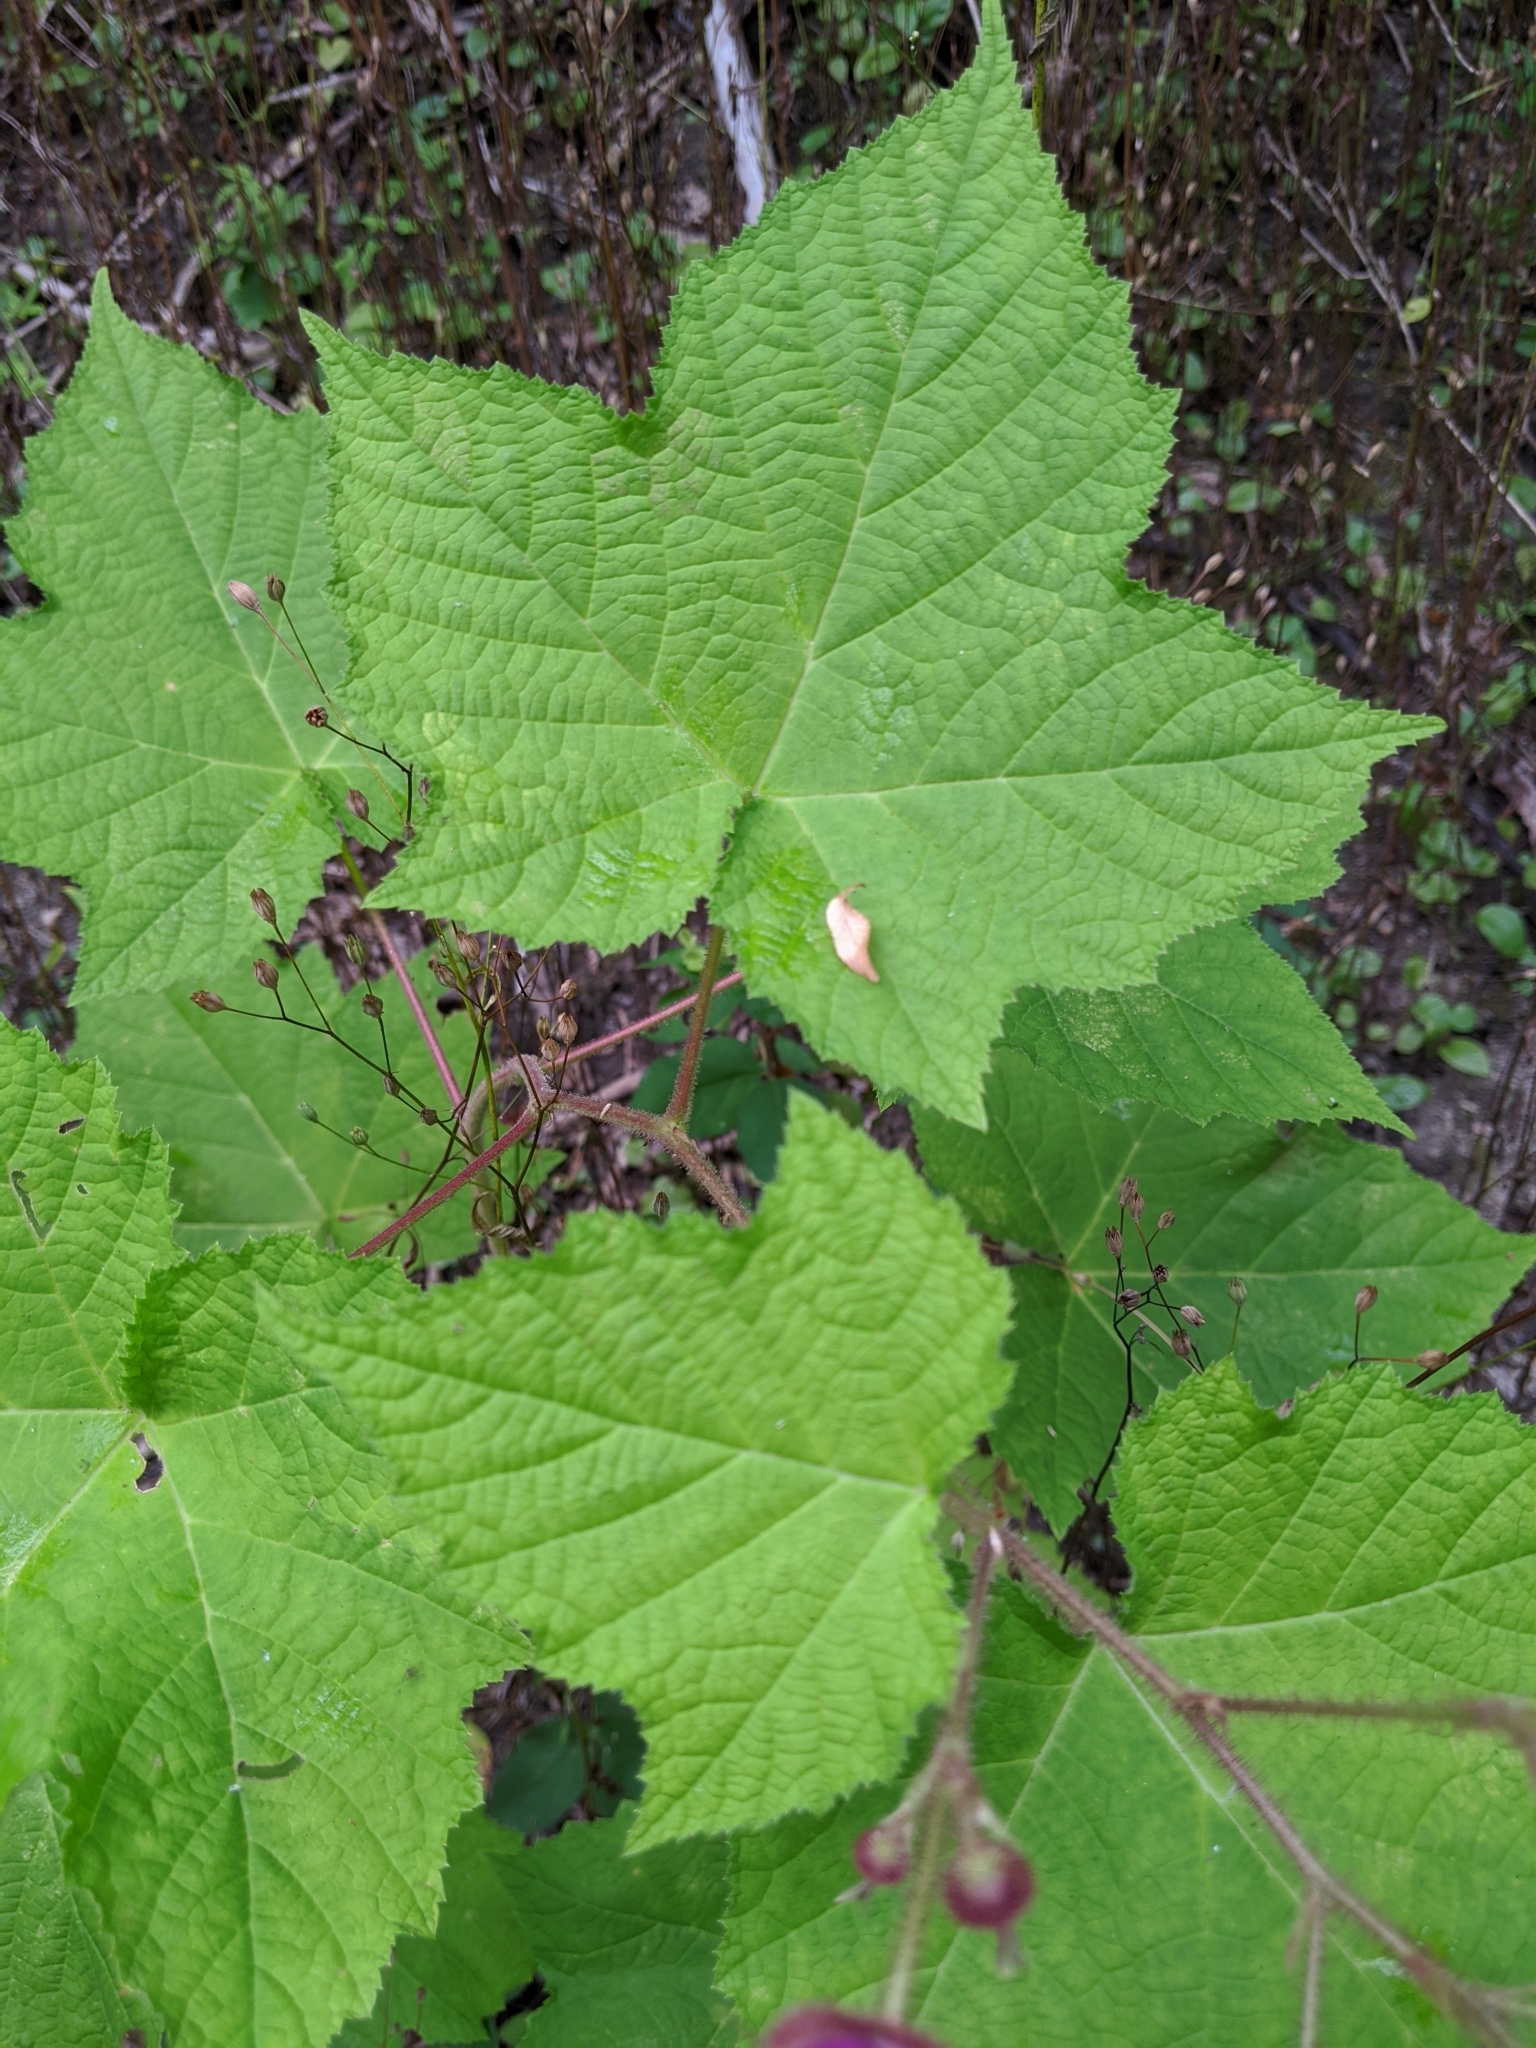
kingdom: Plantae
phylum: Tracheophyta
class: Magnoliopsida
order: Rosales
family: Rosaceae
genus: Rubus
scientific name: Rubus odoratus
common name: Purple-flowered raspberry
